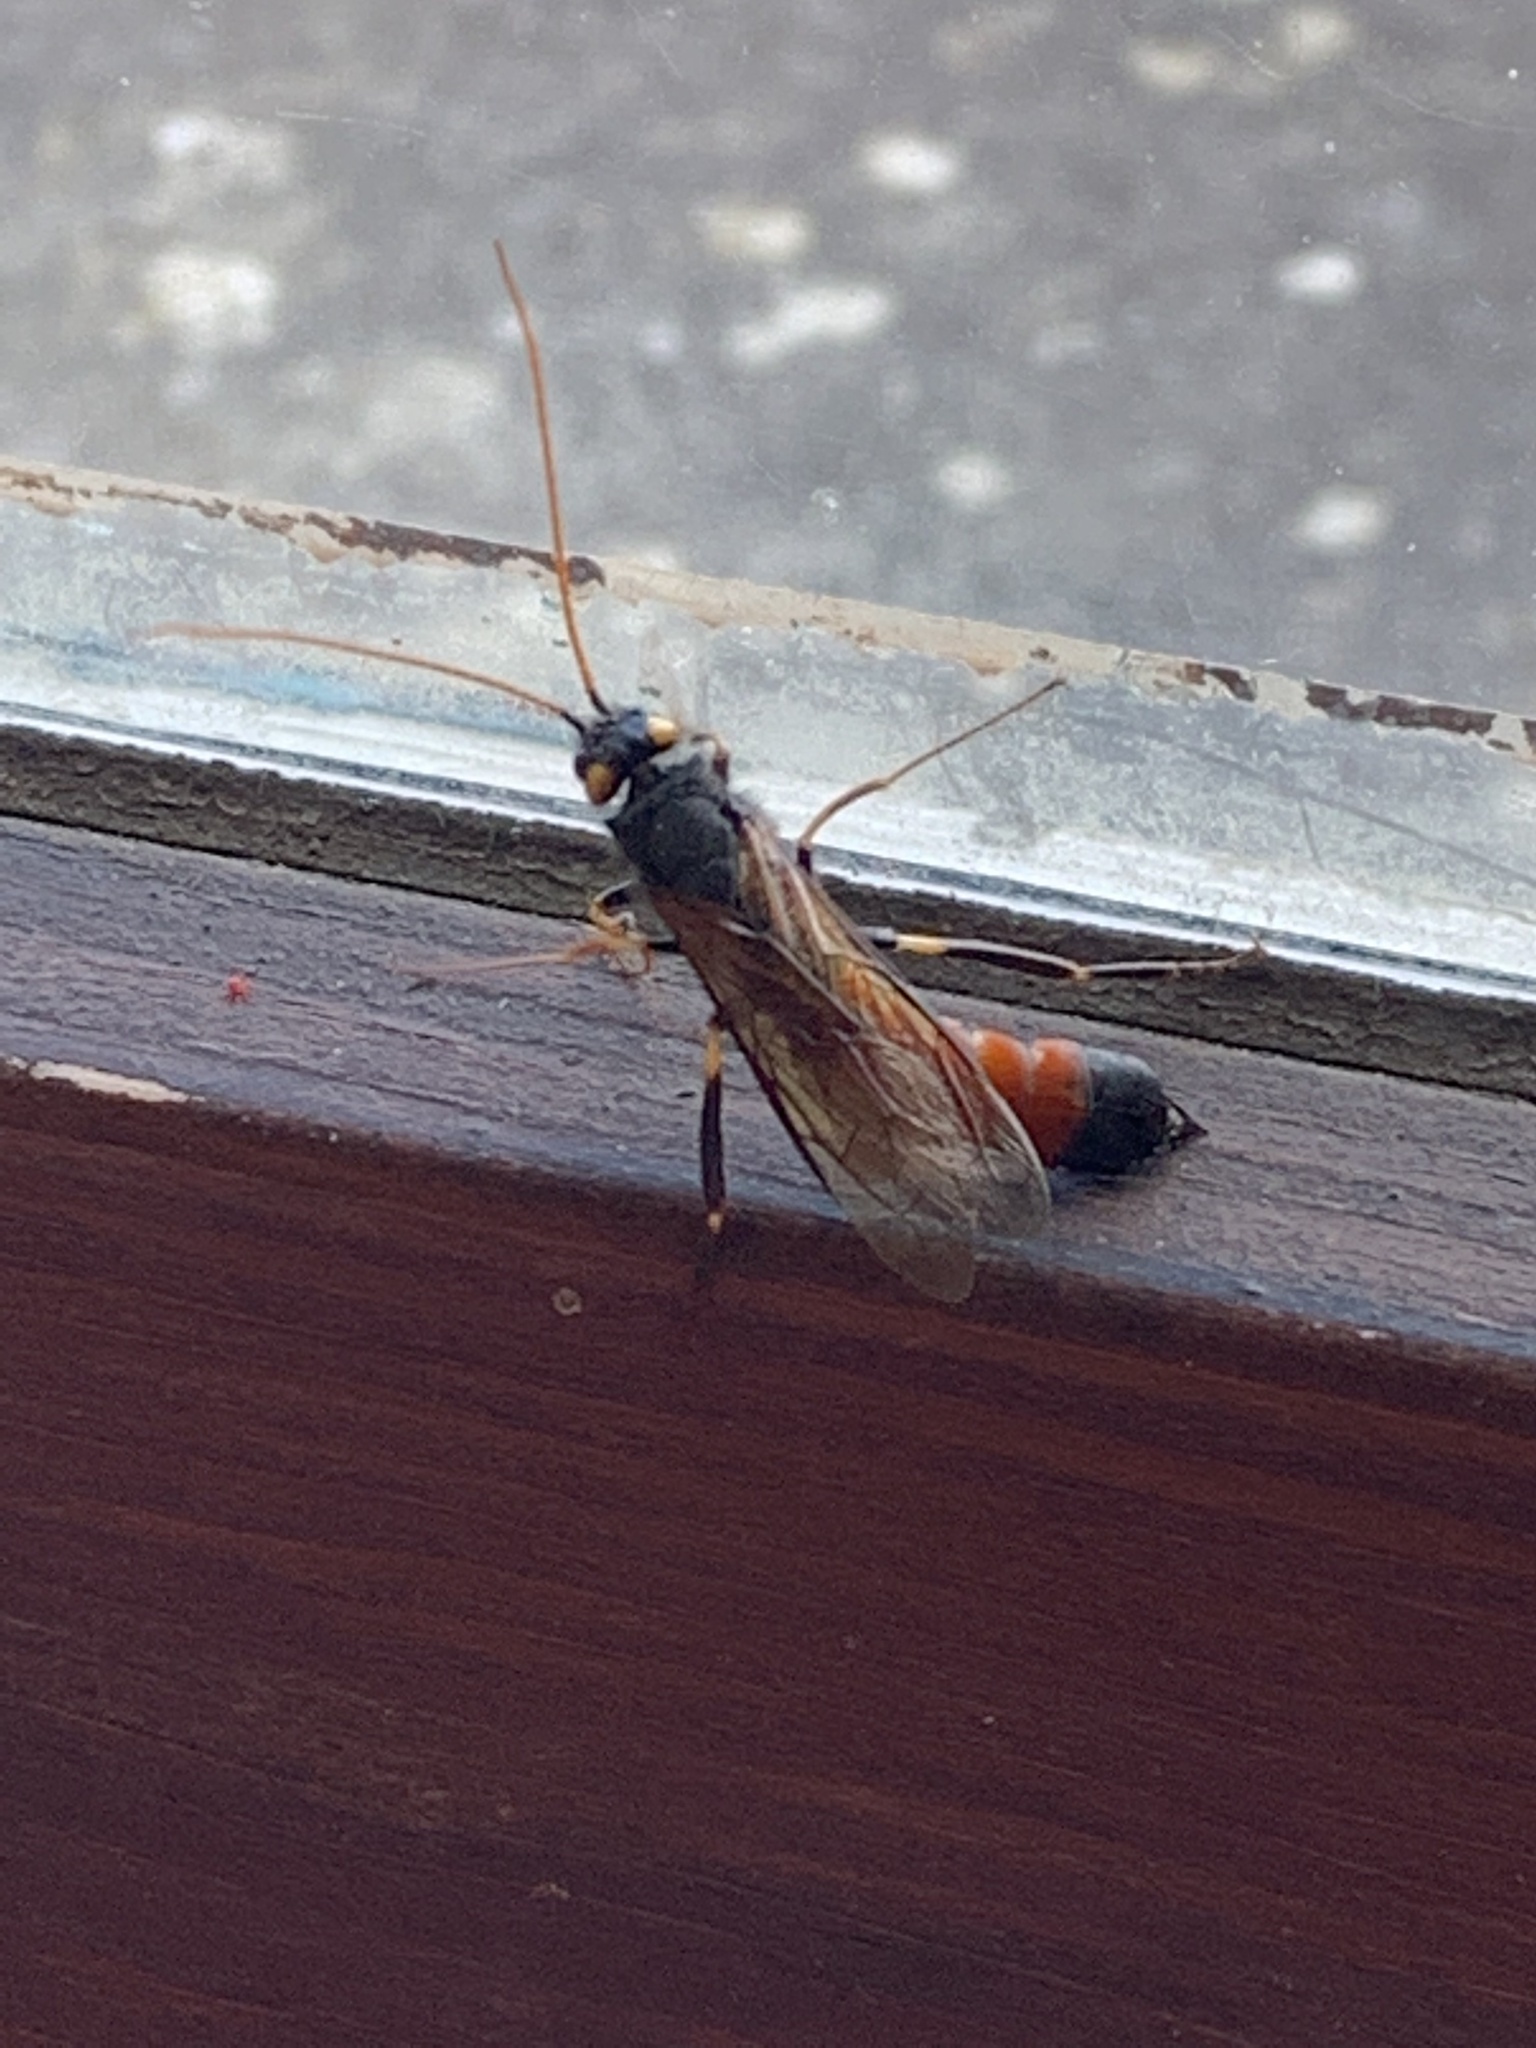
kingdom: Animalia
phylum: Arthropoda
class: Insecta
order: Hymenoptera
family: Siricidae
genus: Urocerus
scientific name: Urocerus gigas
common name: Giant woodwasp
